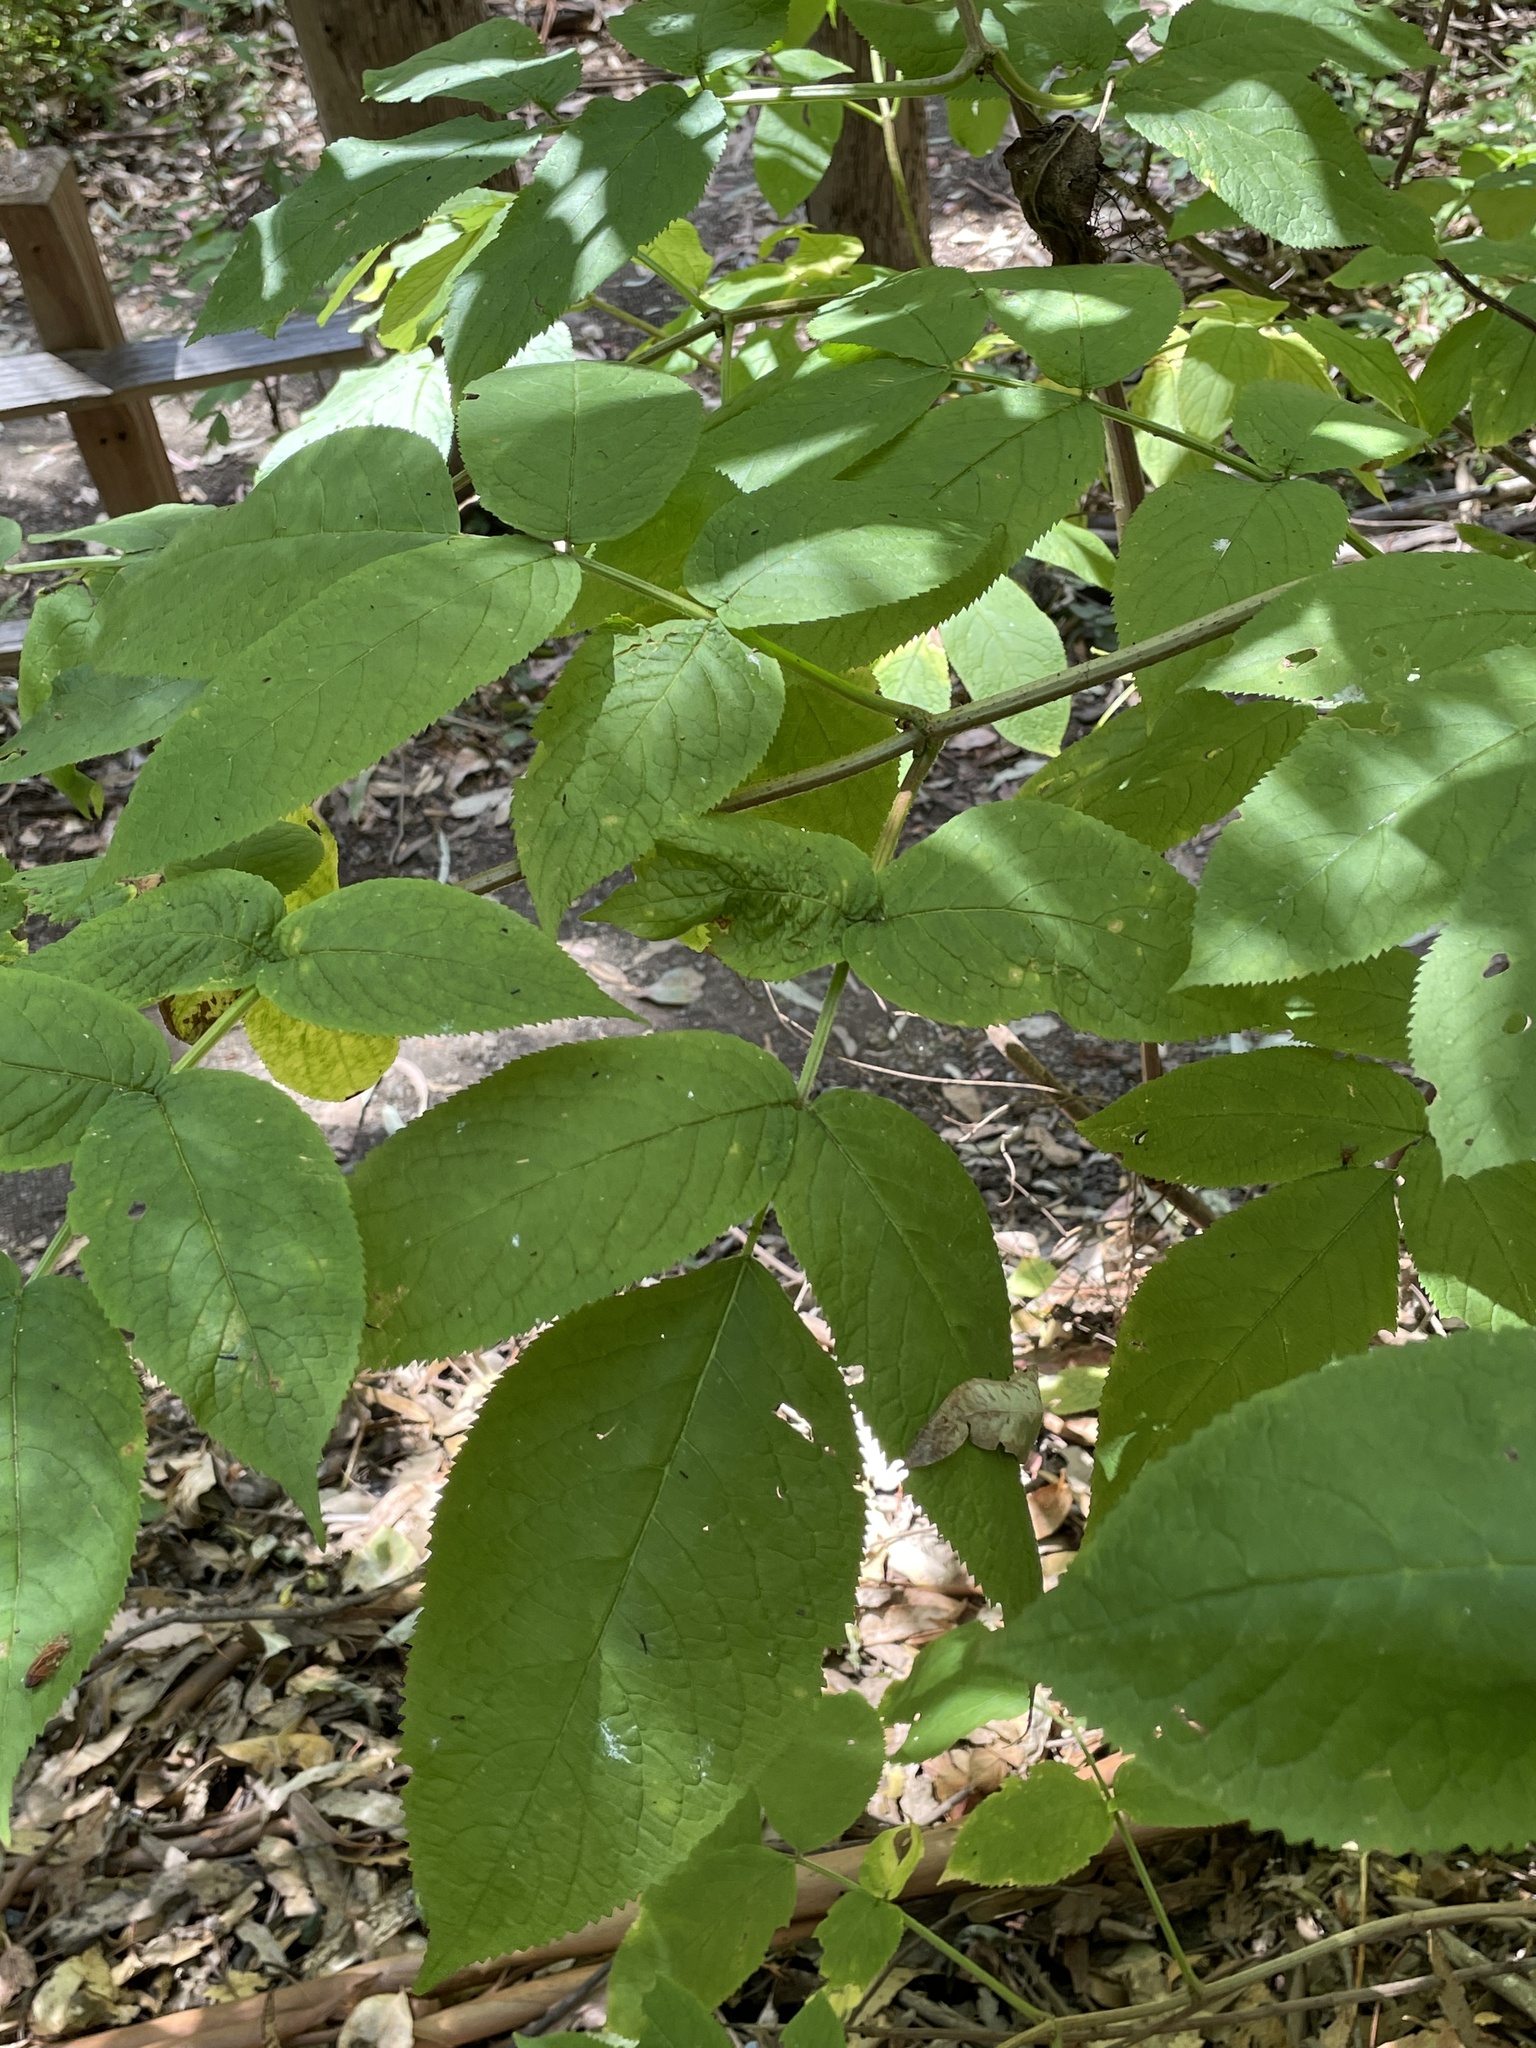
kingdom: Plantae
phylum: Tracheophyta
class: Magnoliopsida
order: Apiales
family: Araliaceae
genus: Aralia
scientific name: Aralia californica
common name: California-ginseng
